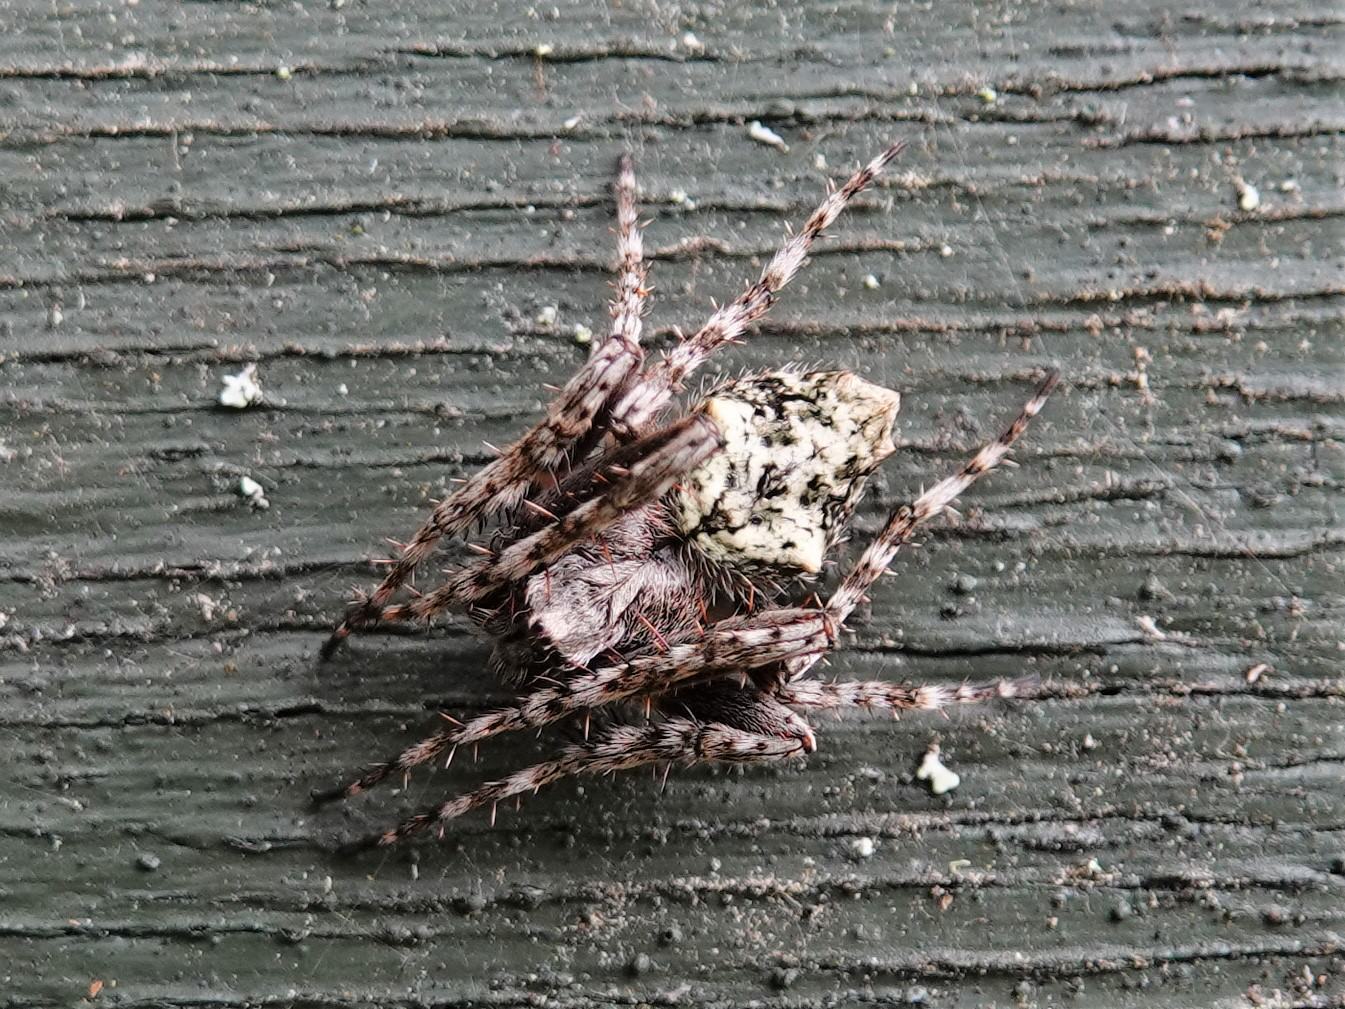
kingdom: Animalia
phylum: Arthropoda
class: Arachnida
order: Araneae
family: Araneidae
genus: Eriophora
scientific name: Eriophora pustulosa
